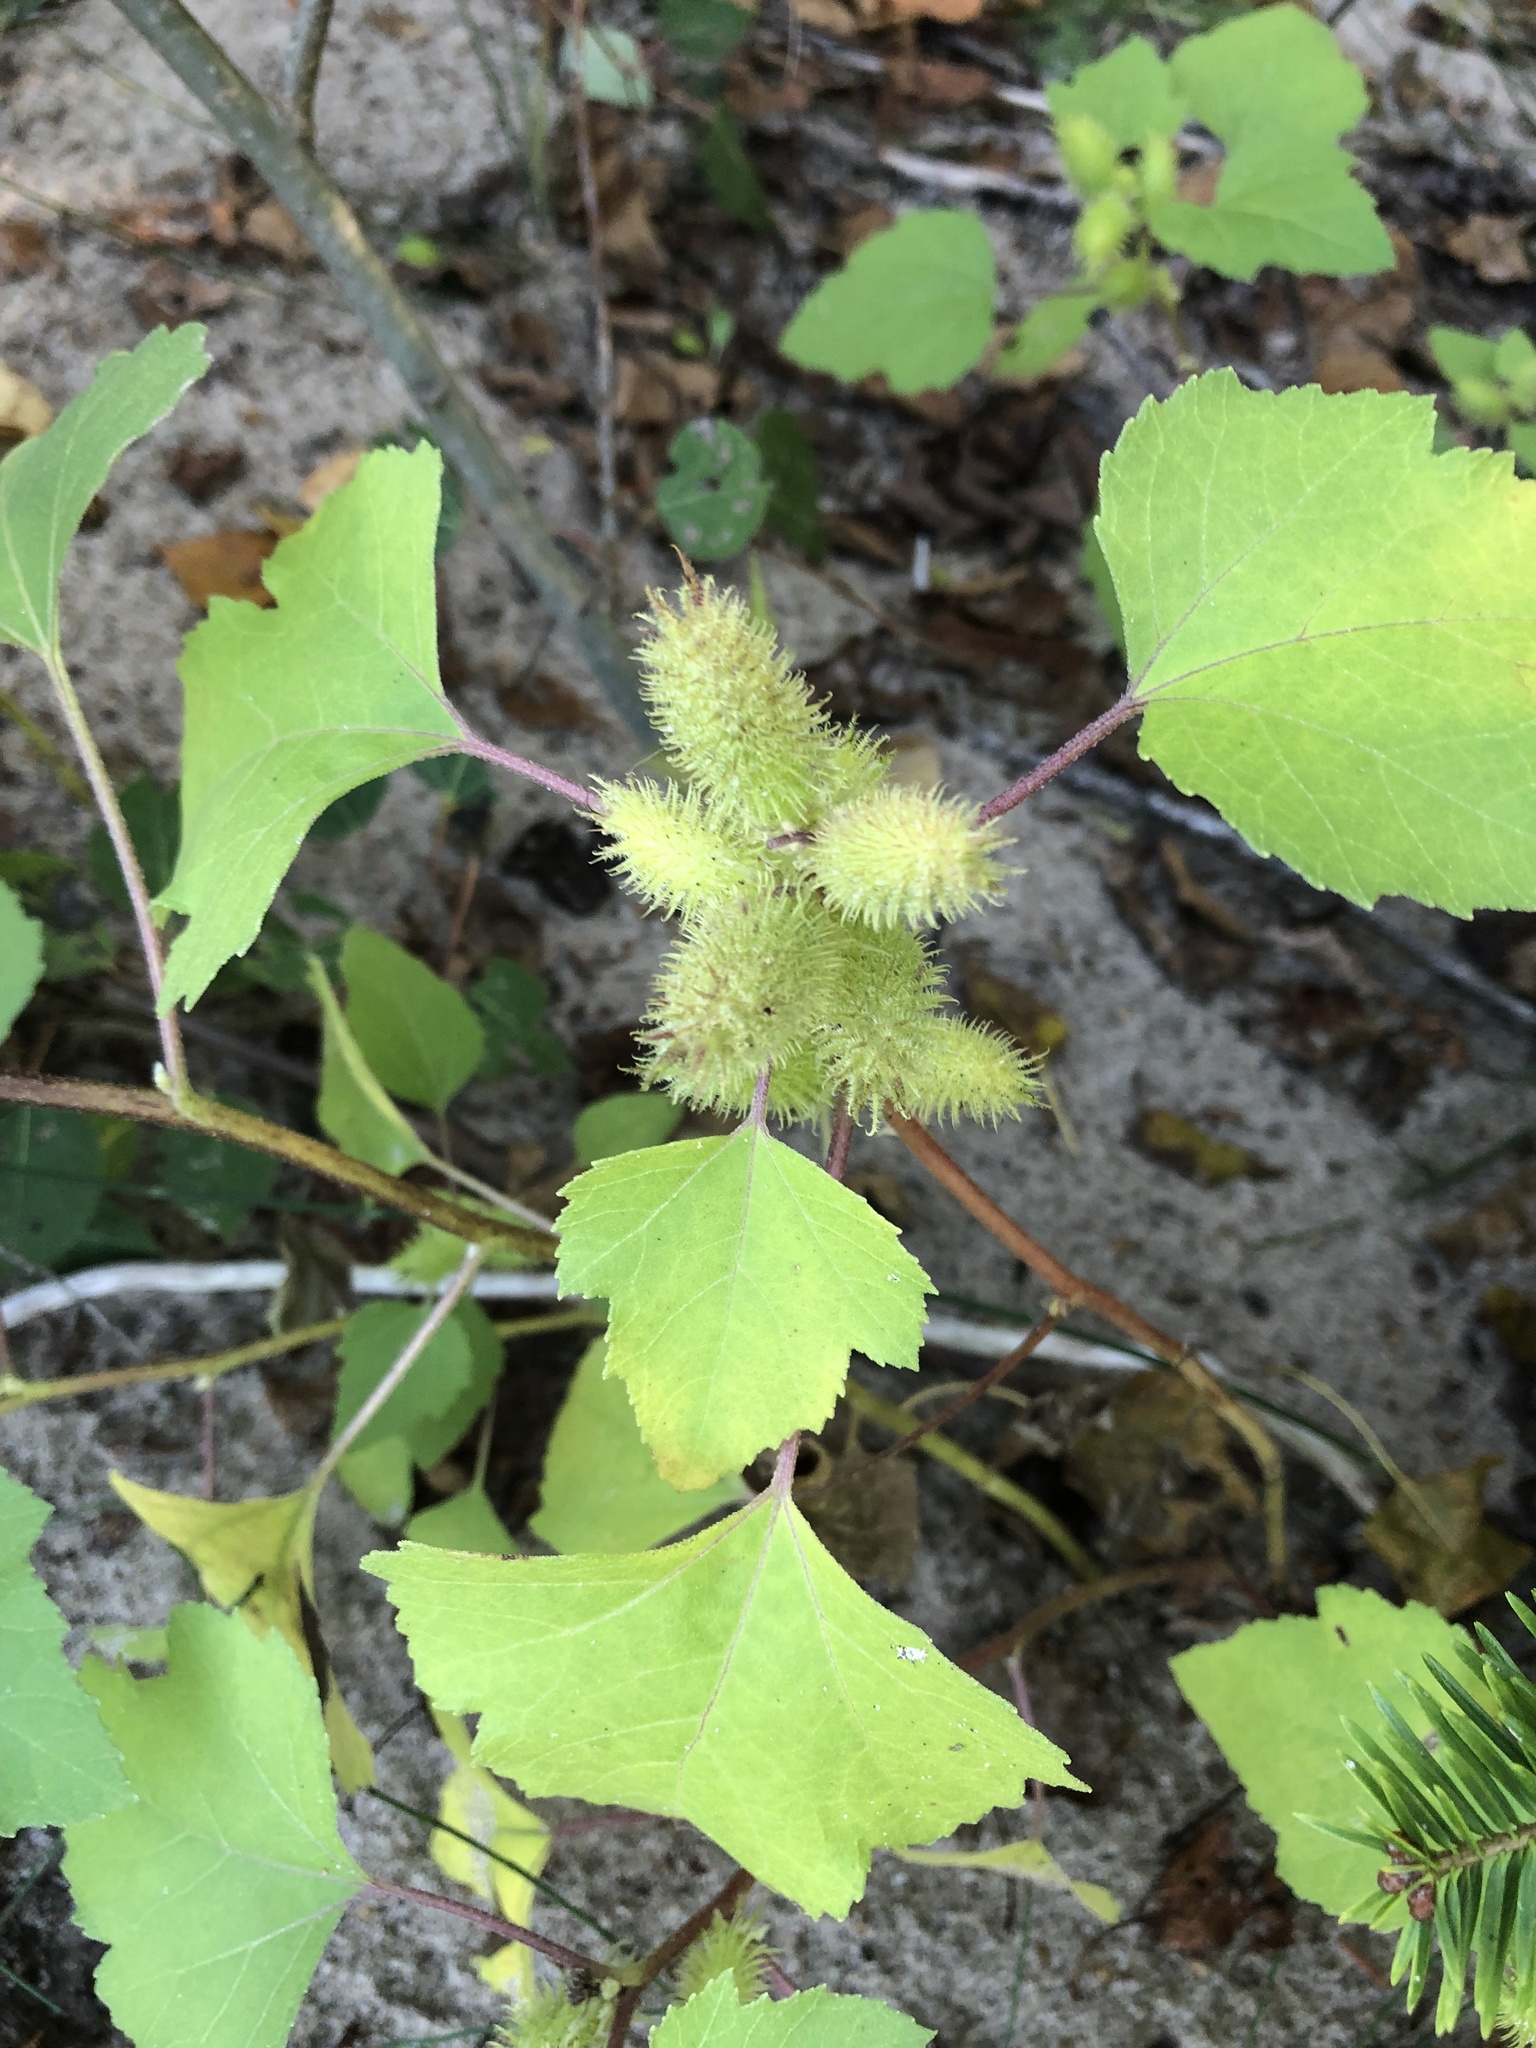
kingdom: Plantae
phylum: Tracheophyta
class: Magnoliopsida
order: Asterales
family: Asteraceae
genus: Xanthium
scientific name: Xanthium strumarium
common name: Rough cocklebur
